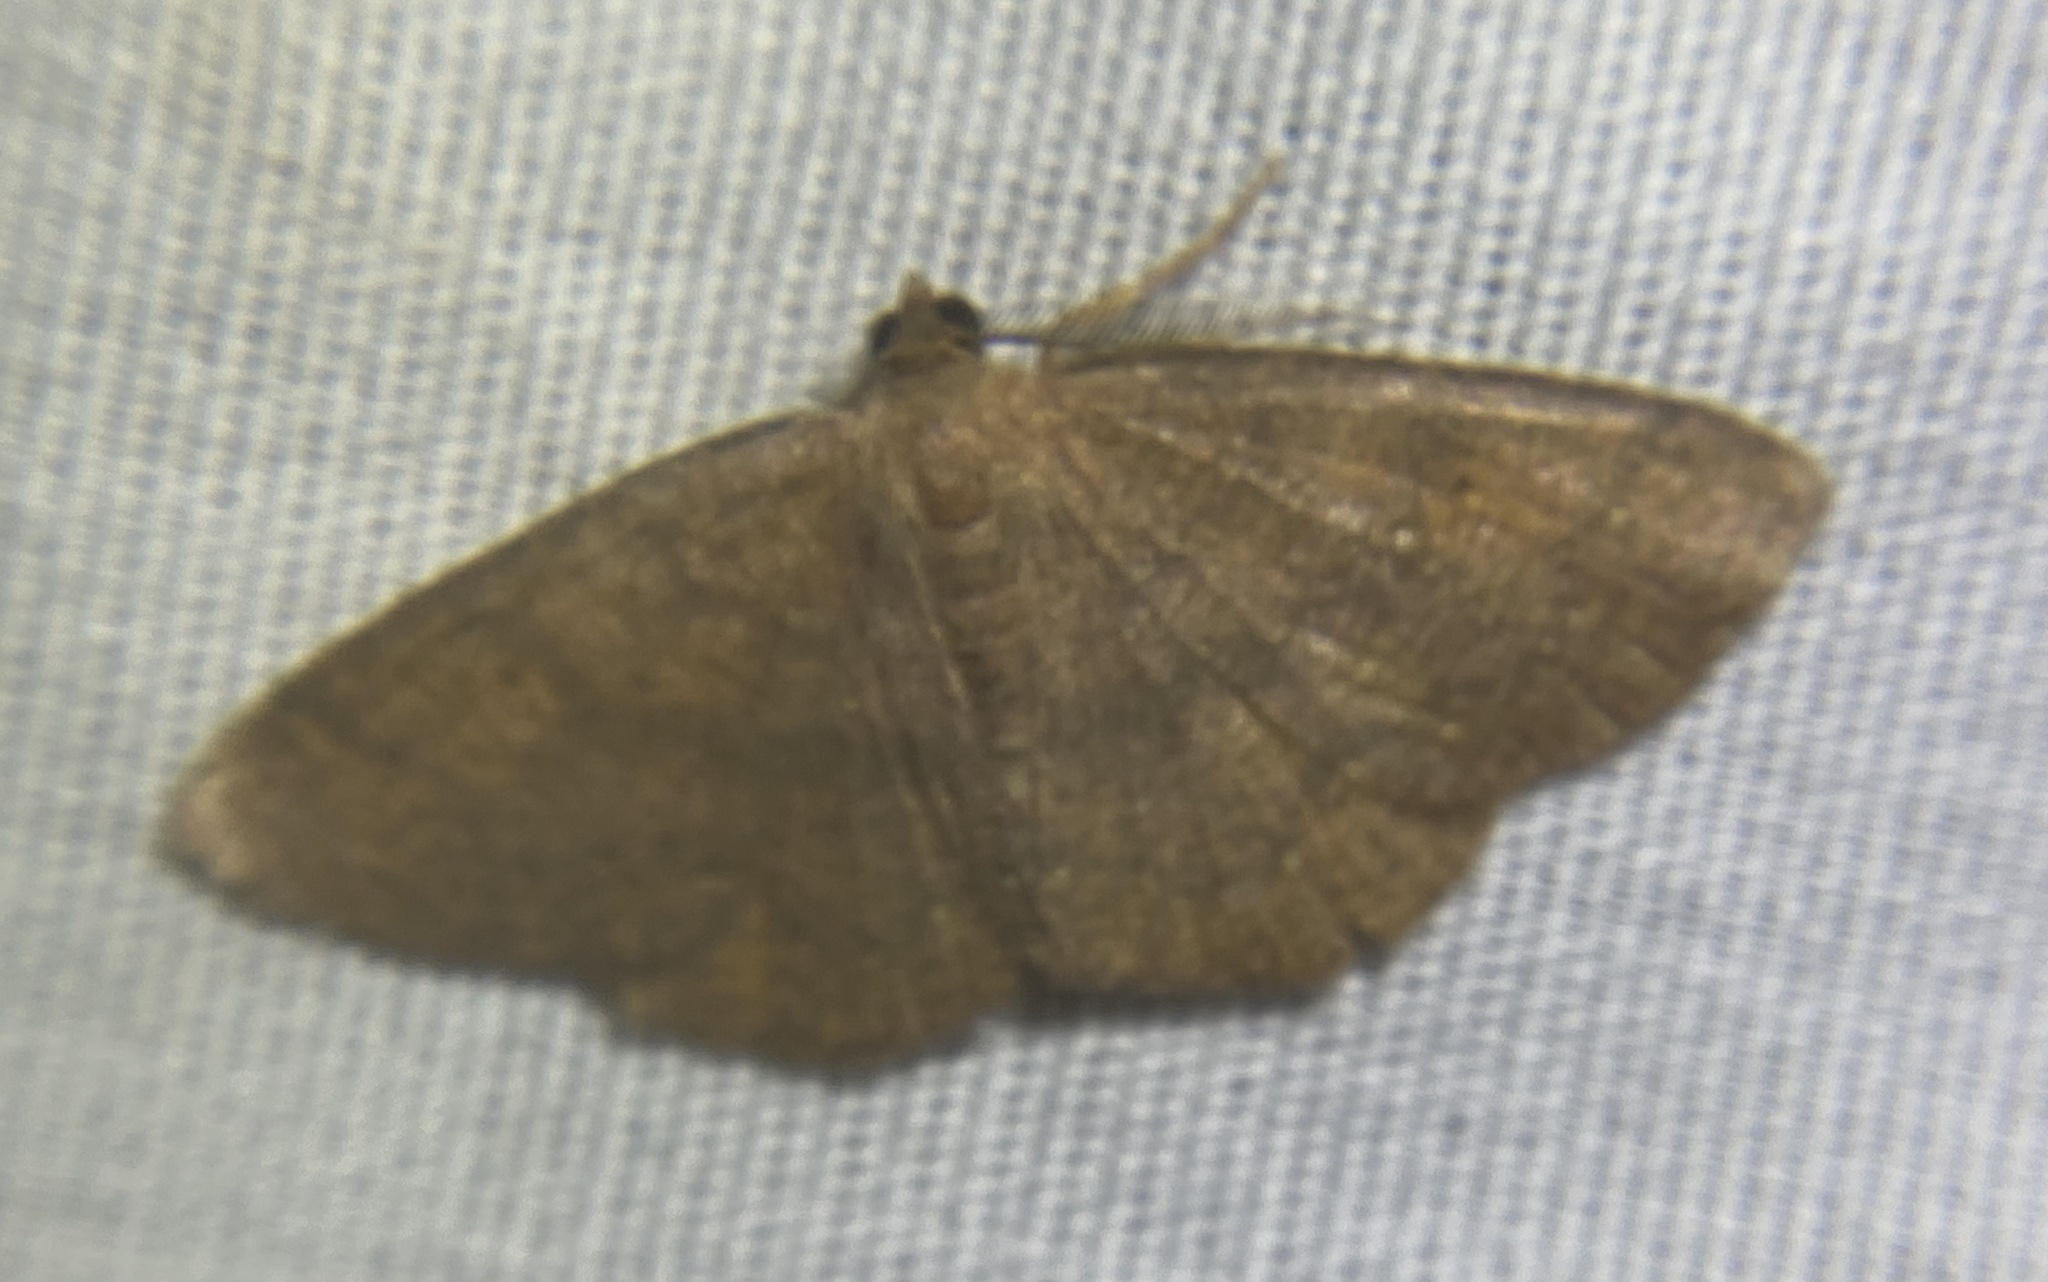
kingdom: Animalia
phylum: Arthropoda
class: Insecta
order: Lepidoptera
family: Geometridae
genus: Ilexia
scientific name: Ilexia intractata
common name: Black-dotted ruddy moth
